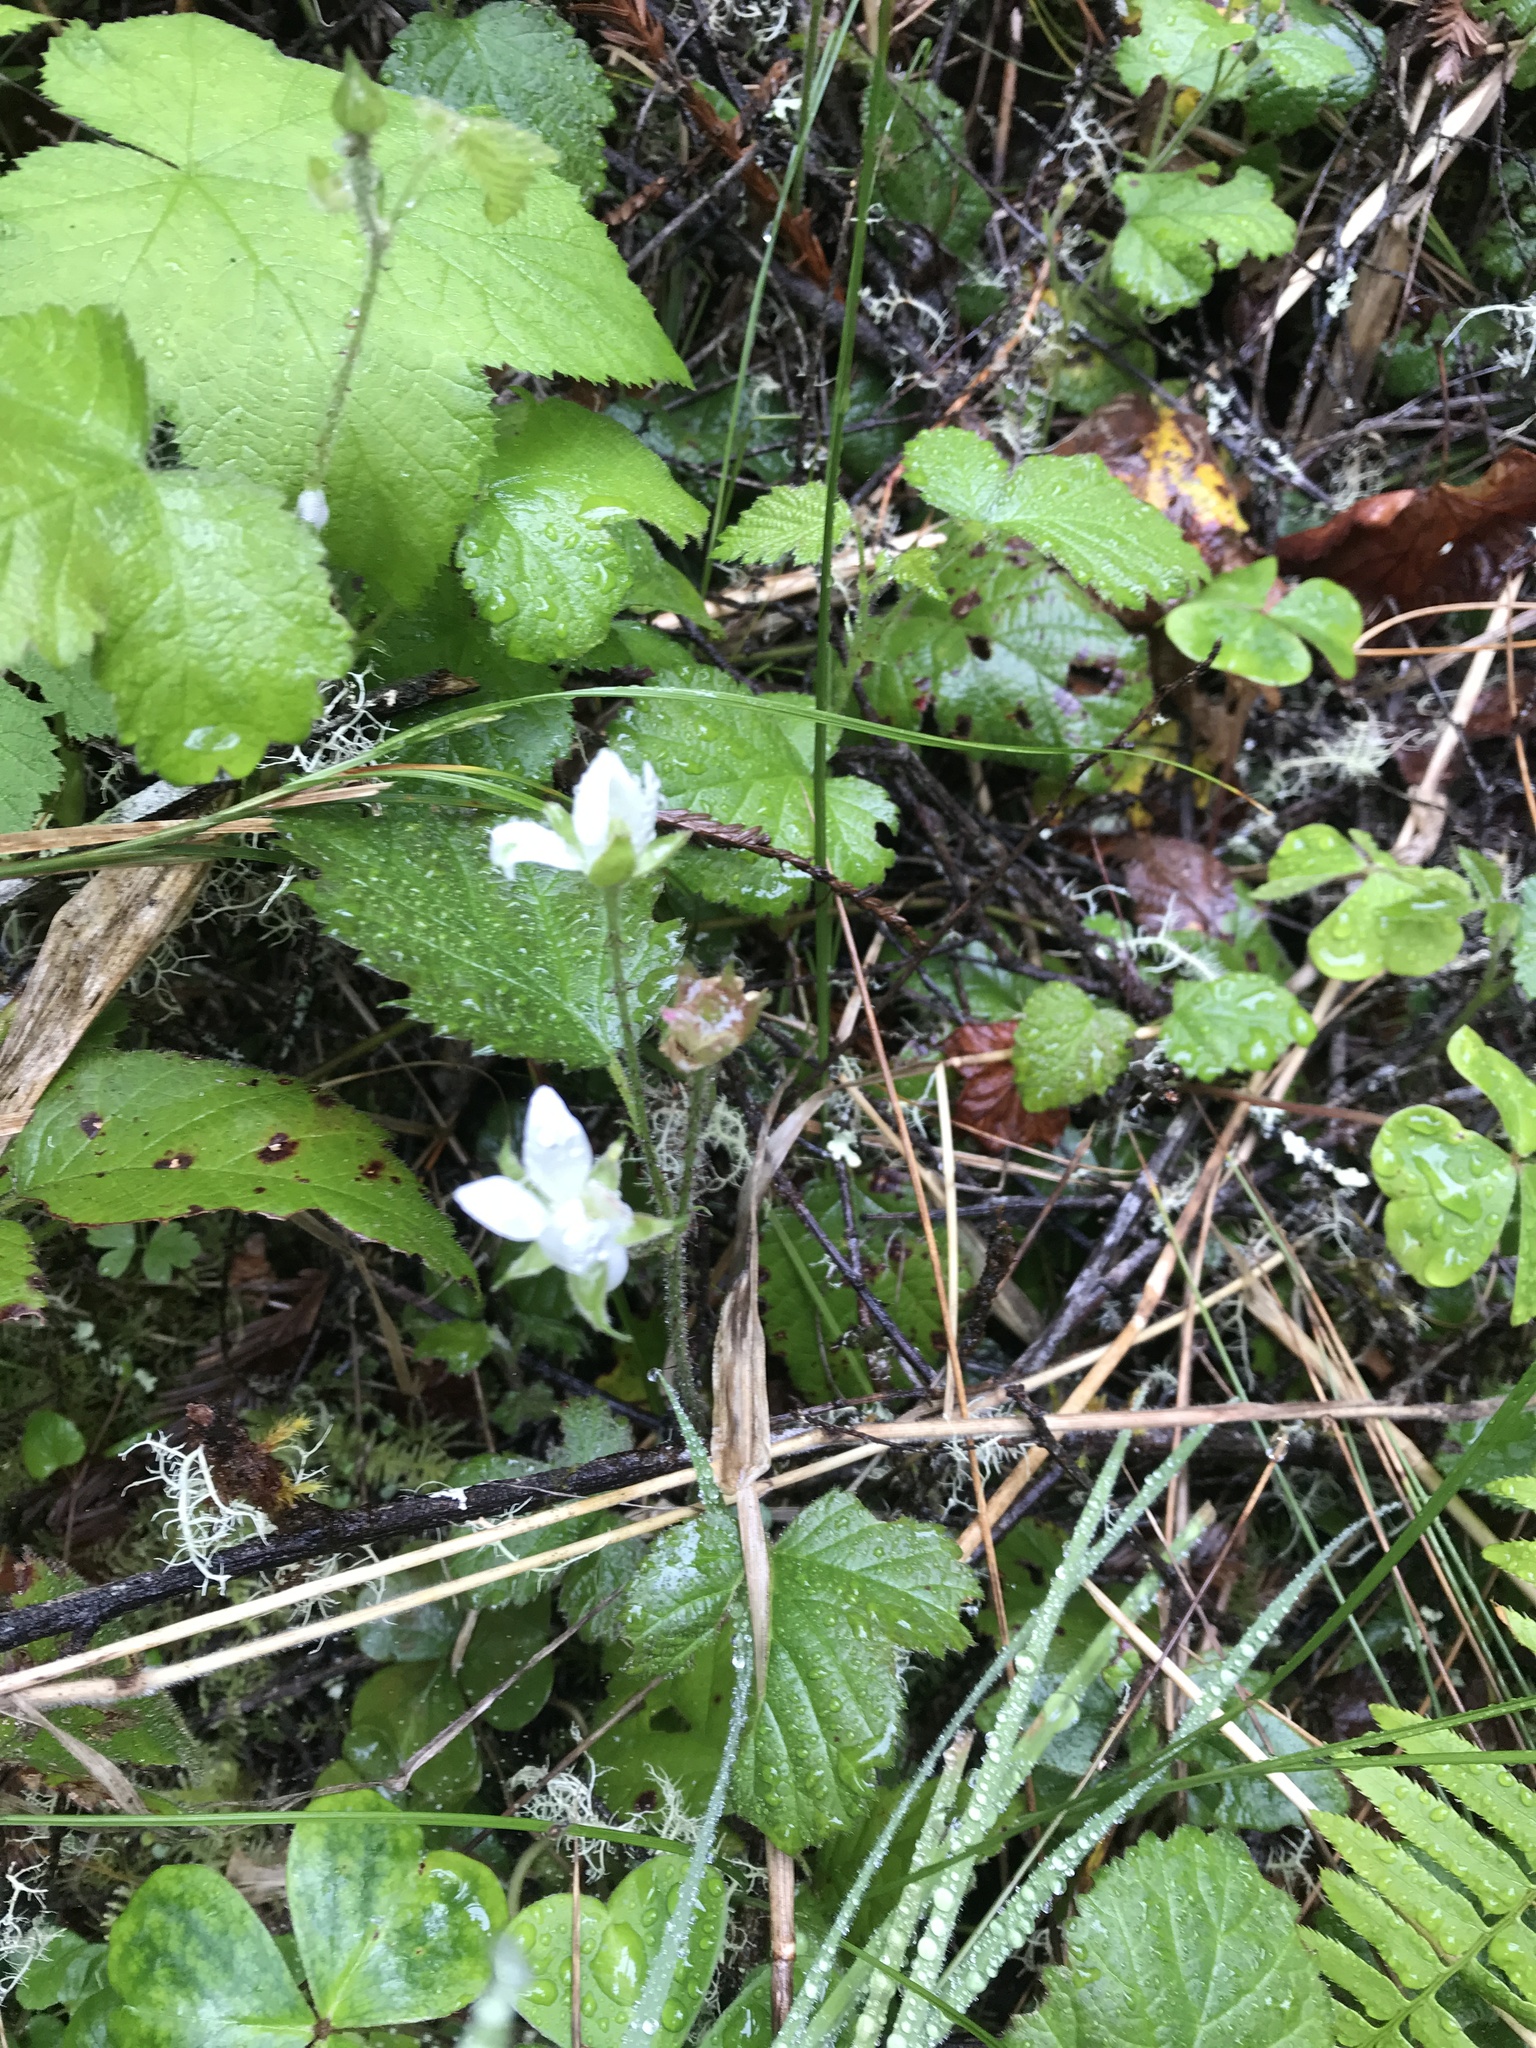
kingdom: Plantae
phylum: Tracheophyta
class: Magnoliopsida
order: Rosales
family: Rosaceae
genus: Rubus
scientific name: Rubus ursinus
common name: Pacific blackberry
